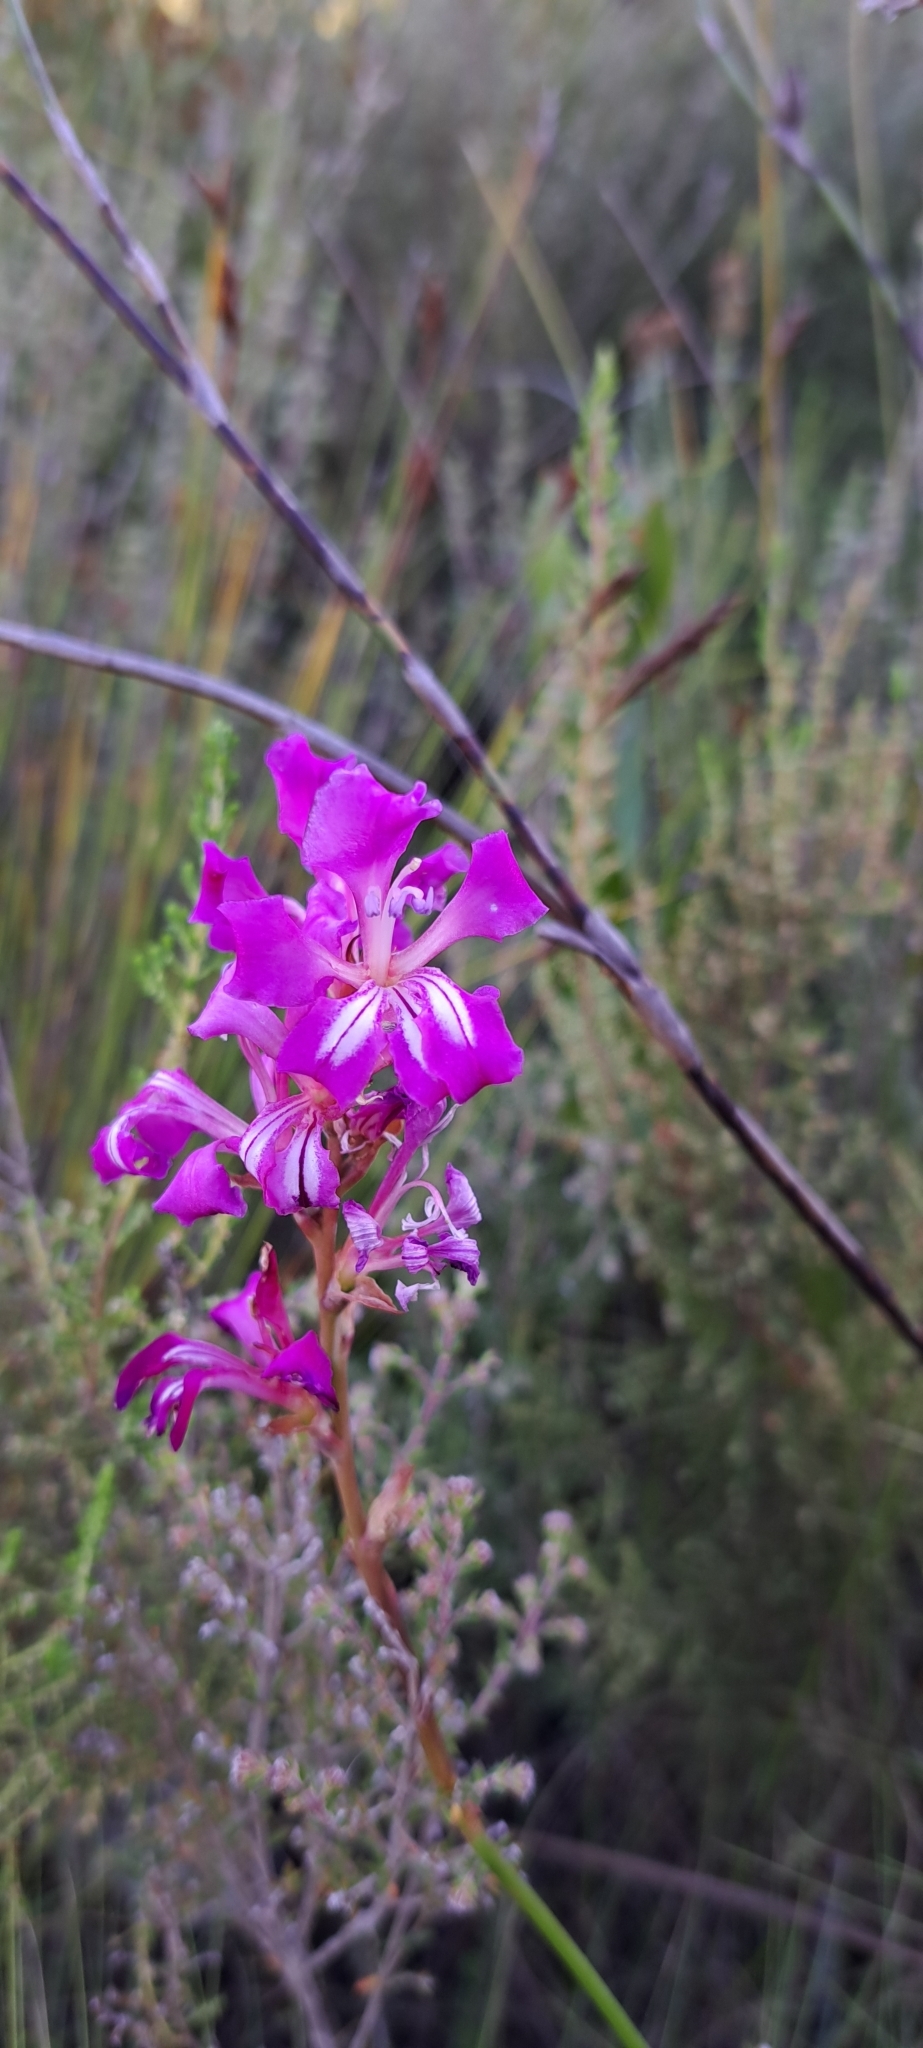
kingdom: Plantae
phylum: Tracheophyta
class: Liliopsida
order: Asparagales
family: Iridaceae
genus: Tritoniopsis
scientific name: Tritoniopsis lata
